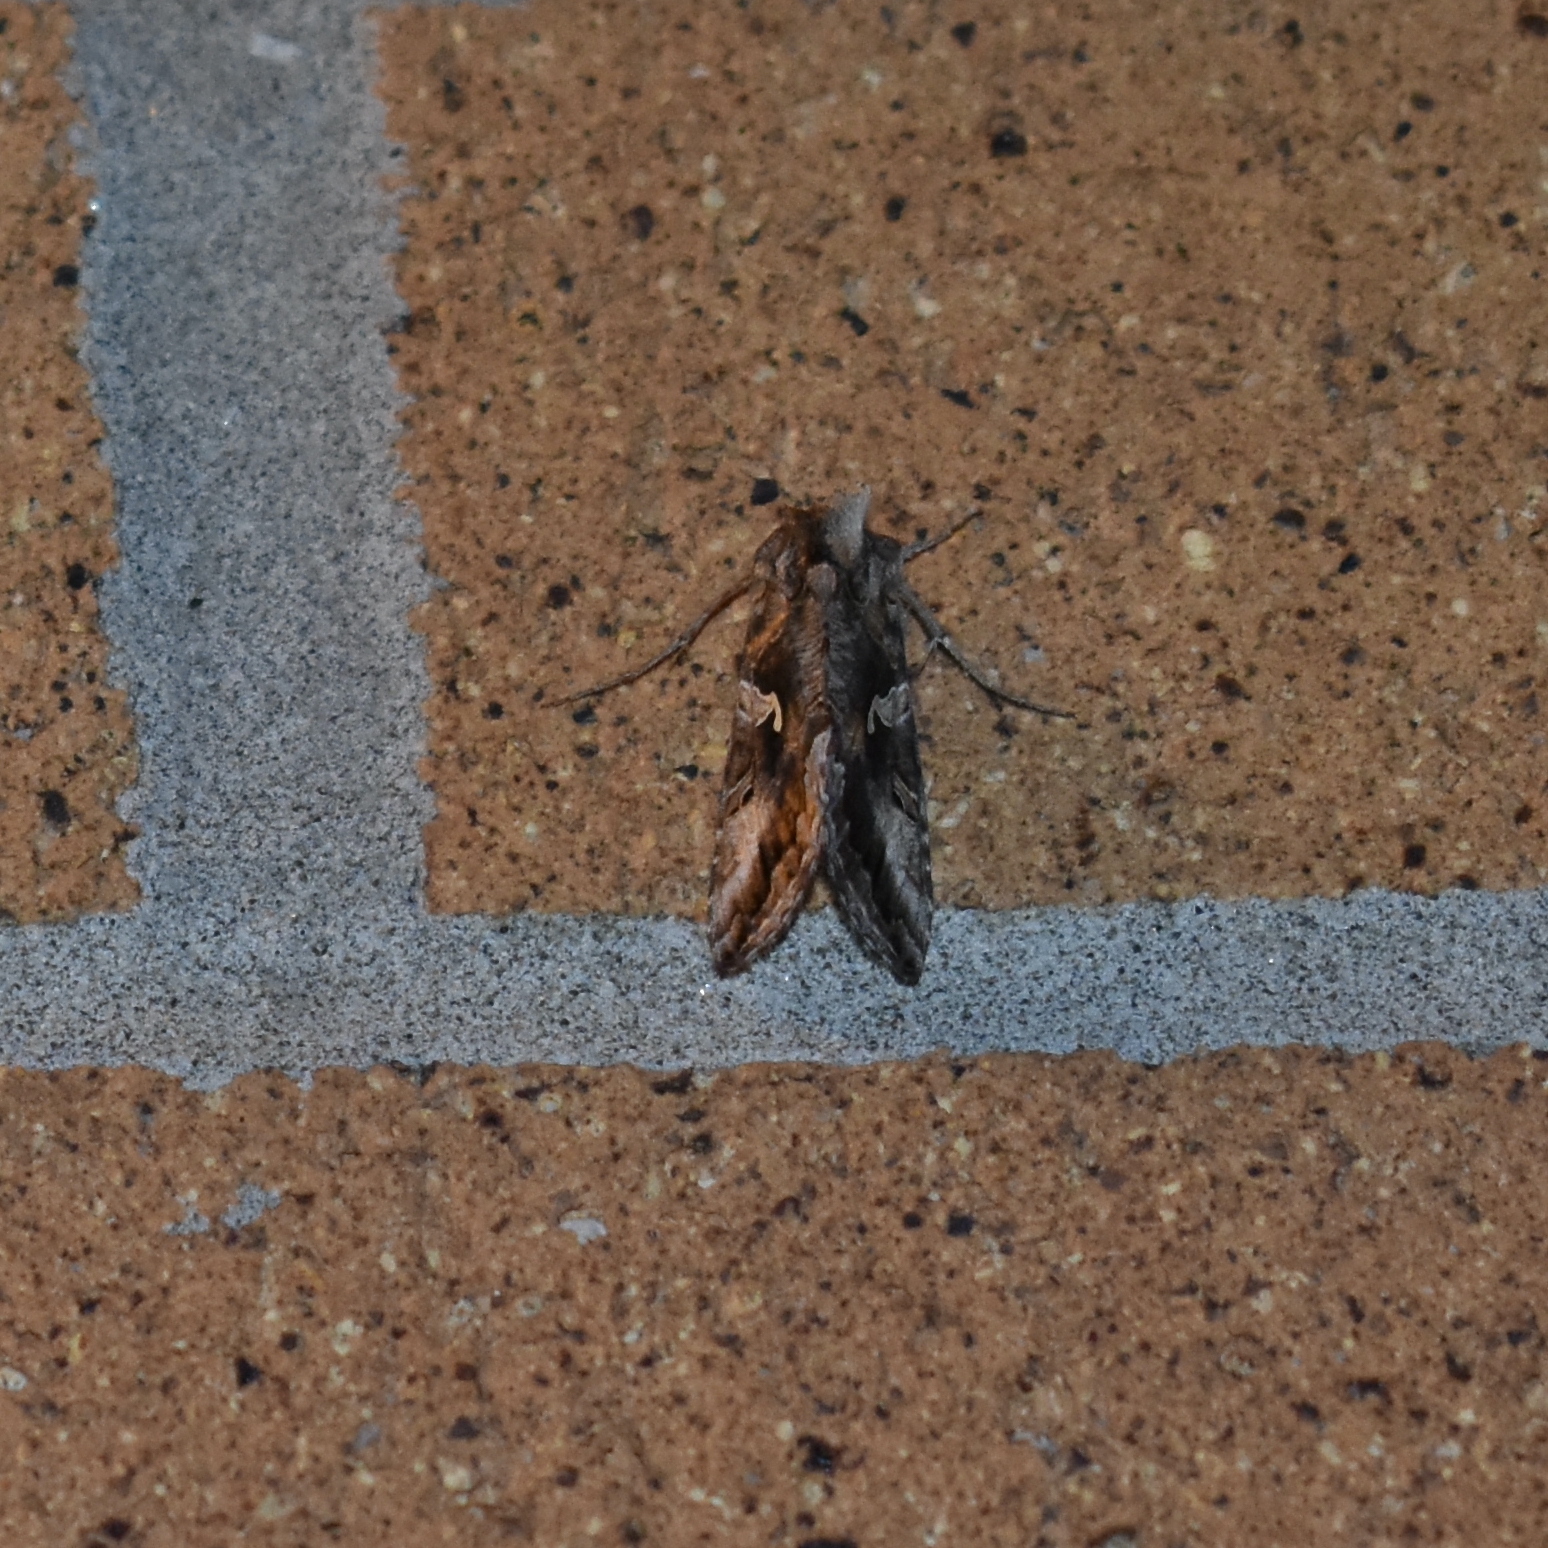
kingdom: Animalia
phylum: Arthropoda
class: Insecta
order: Lepidoptera
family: Noctuidae
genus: Autographa
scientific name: Autographa californica
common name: Alfalfa looper
